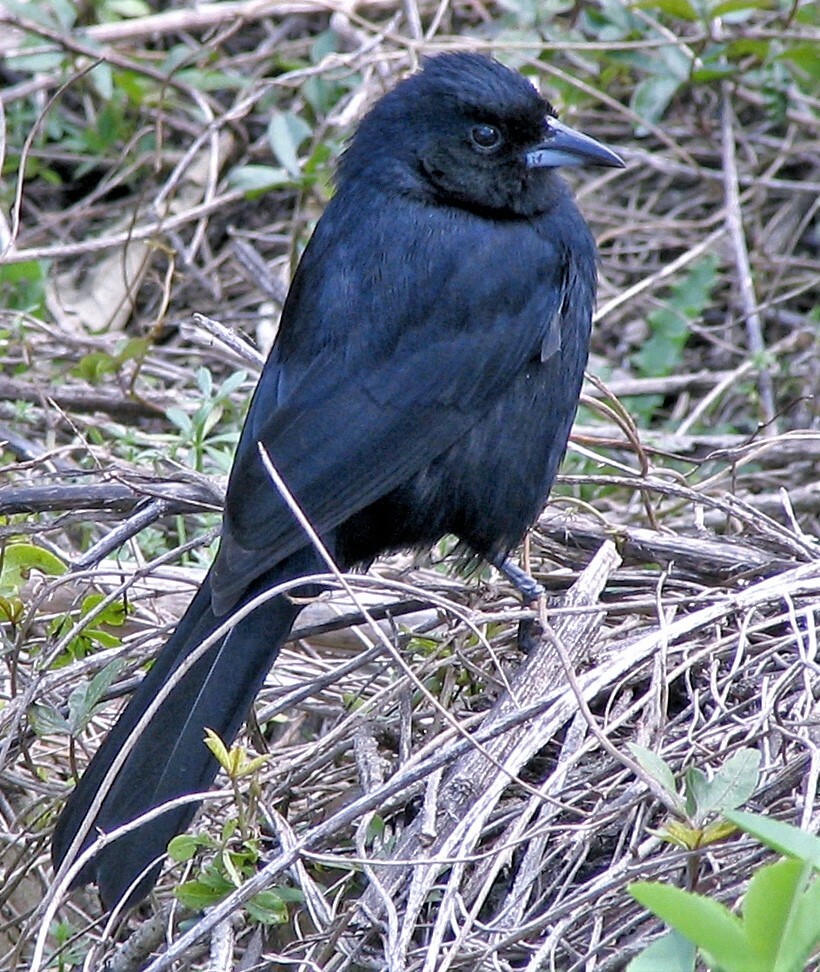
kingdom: Animalia
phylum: Chordata
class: Aves
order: Passeriformes
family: Thraupidae
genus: Tachyphonus
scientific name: Tachyphonus rufus
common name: White-lined tanager
